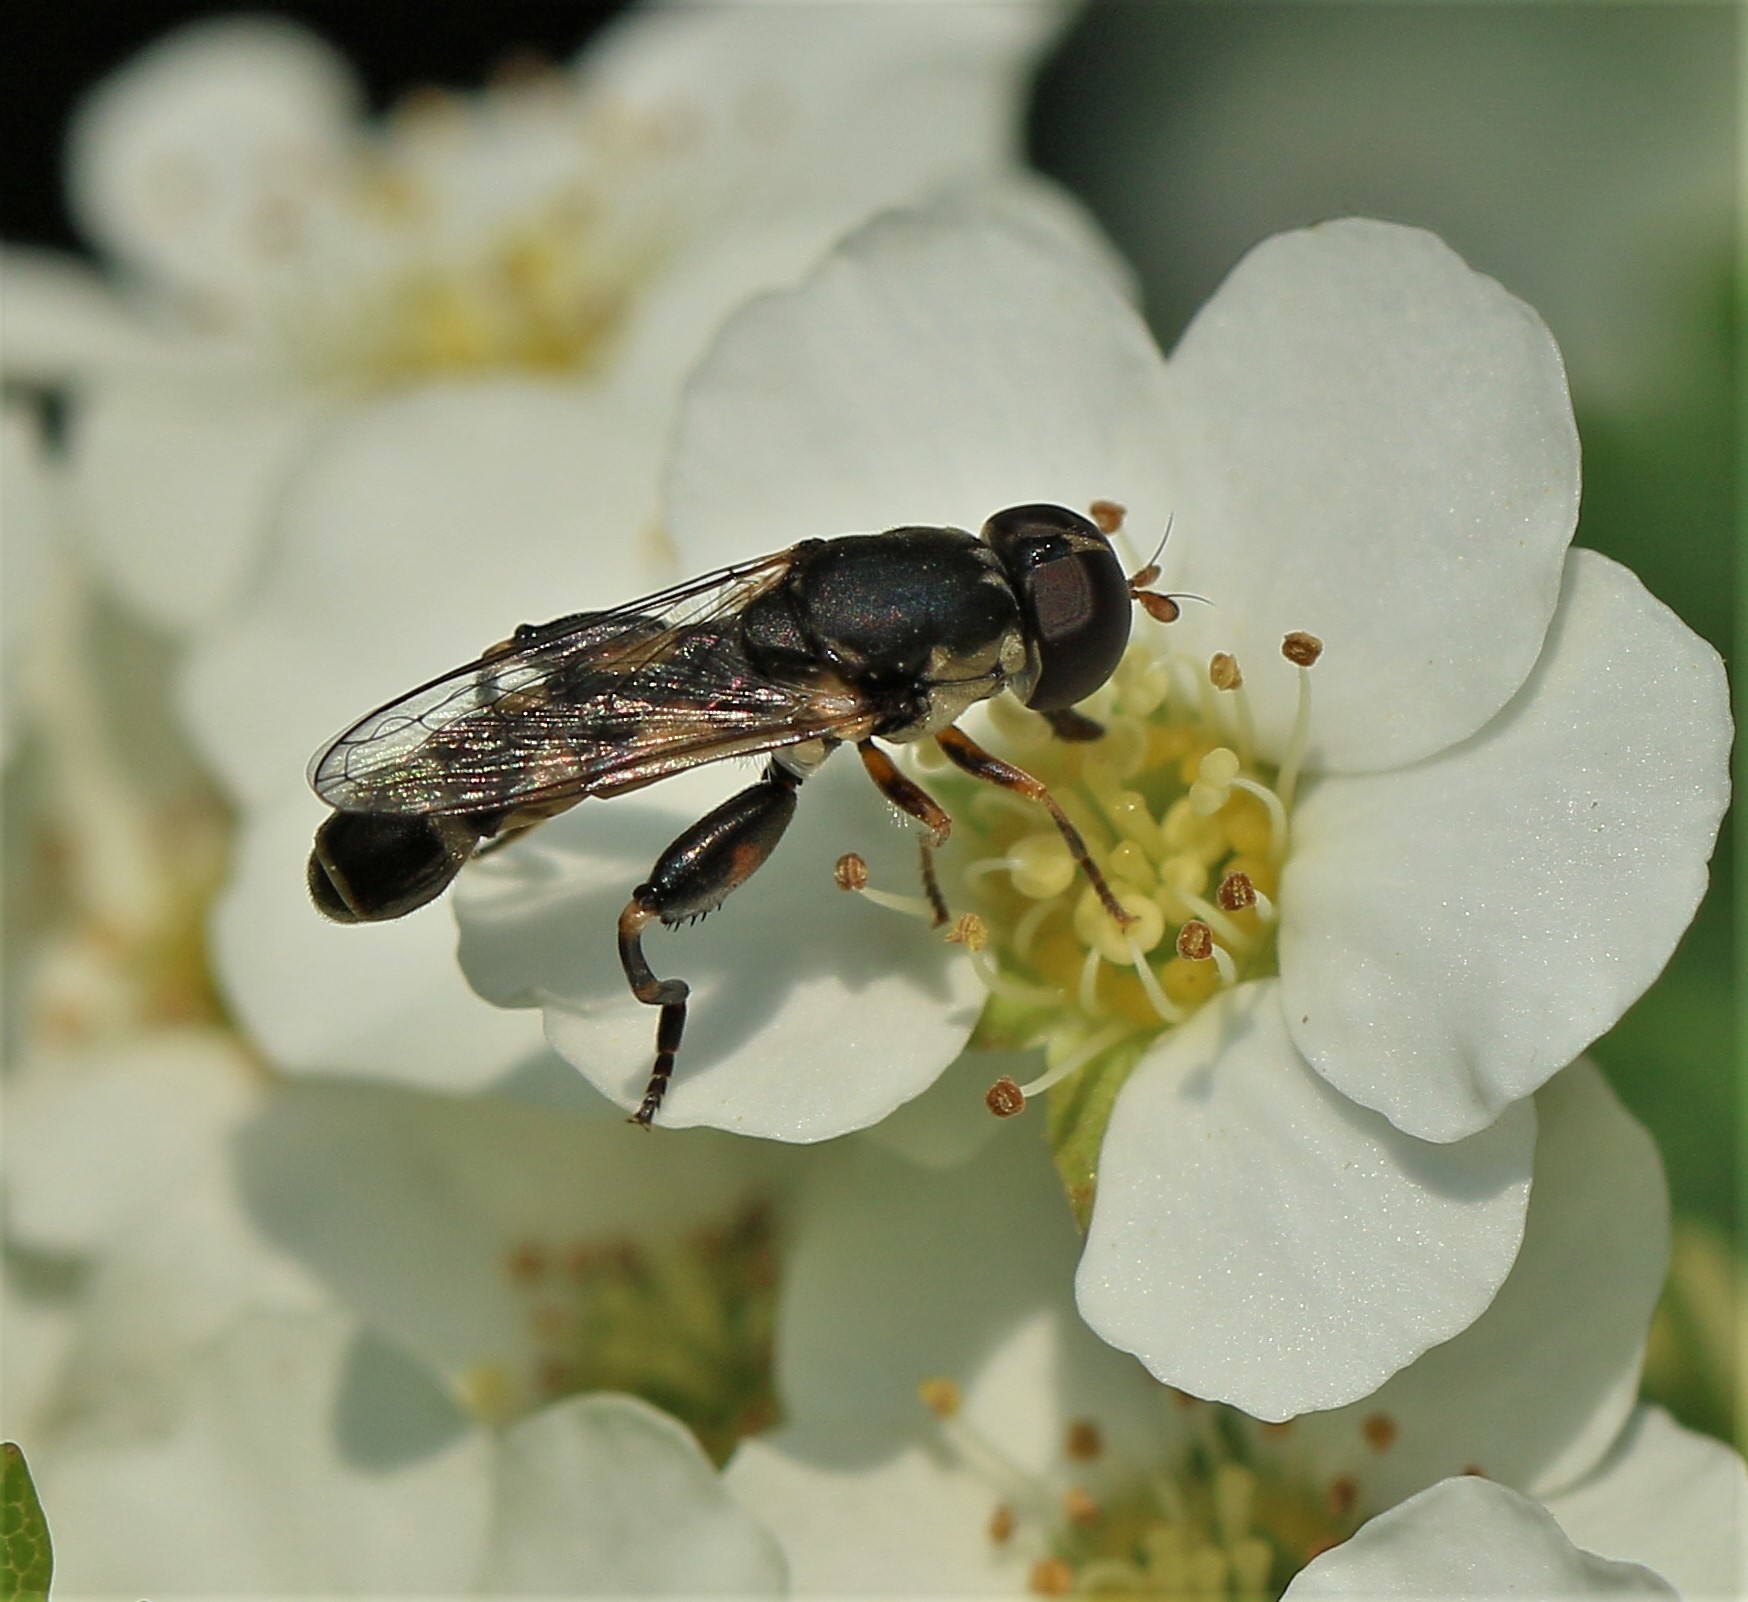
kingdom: Animalia
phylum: Arthropoda
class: Insecta
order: Diptera
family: Syrphidae
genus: Syritta
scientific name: Syritta pipiens
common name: Hover fly
